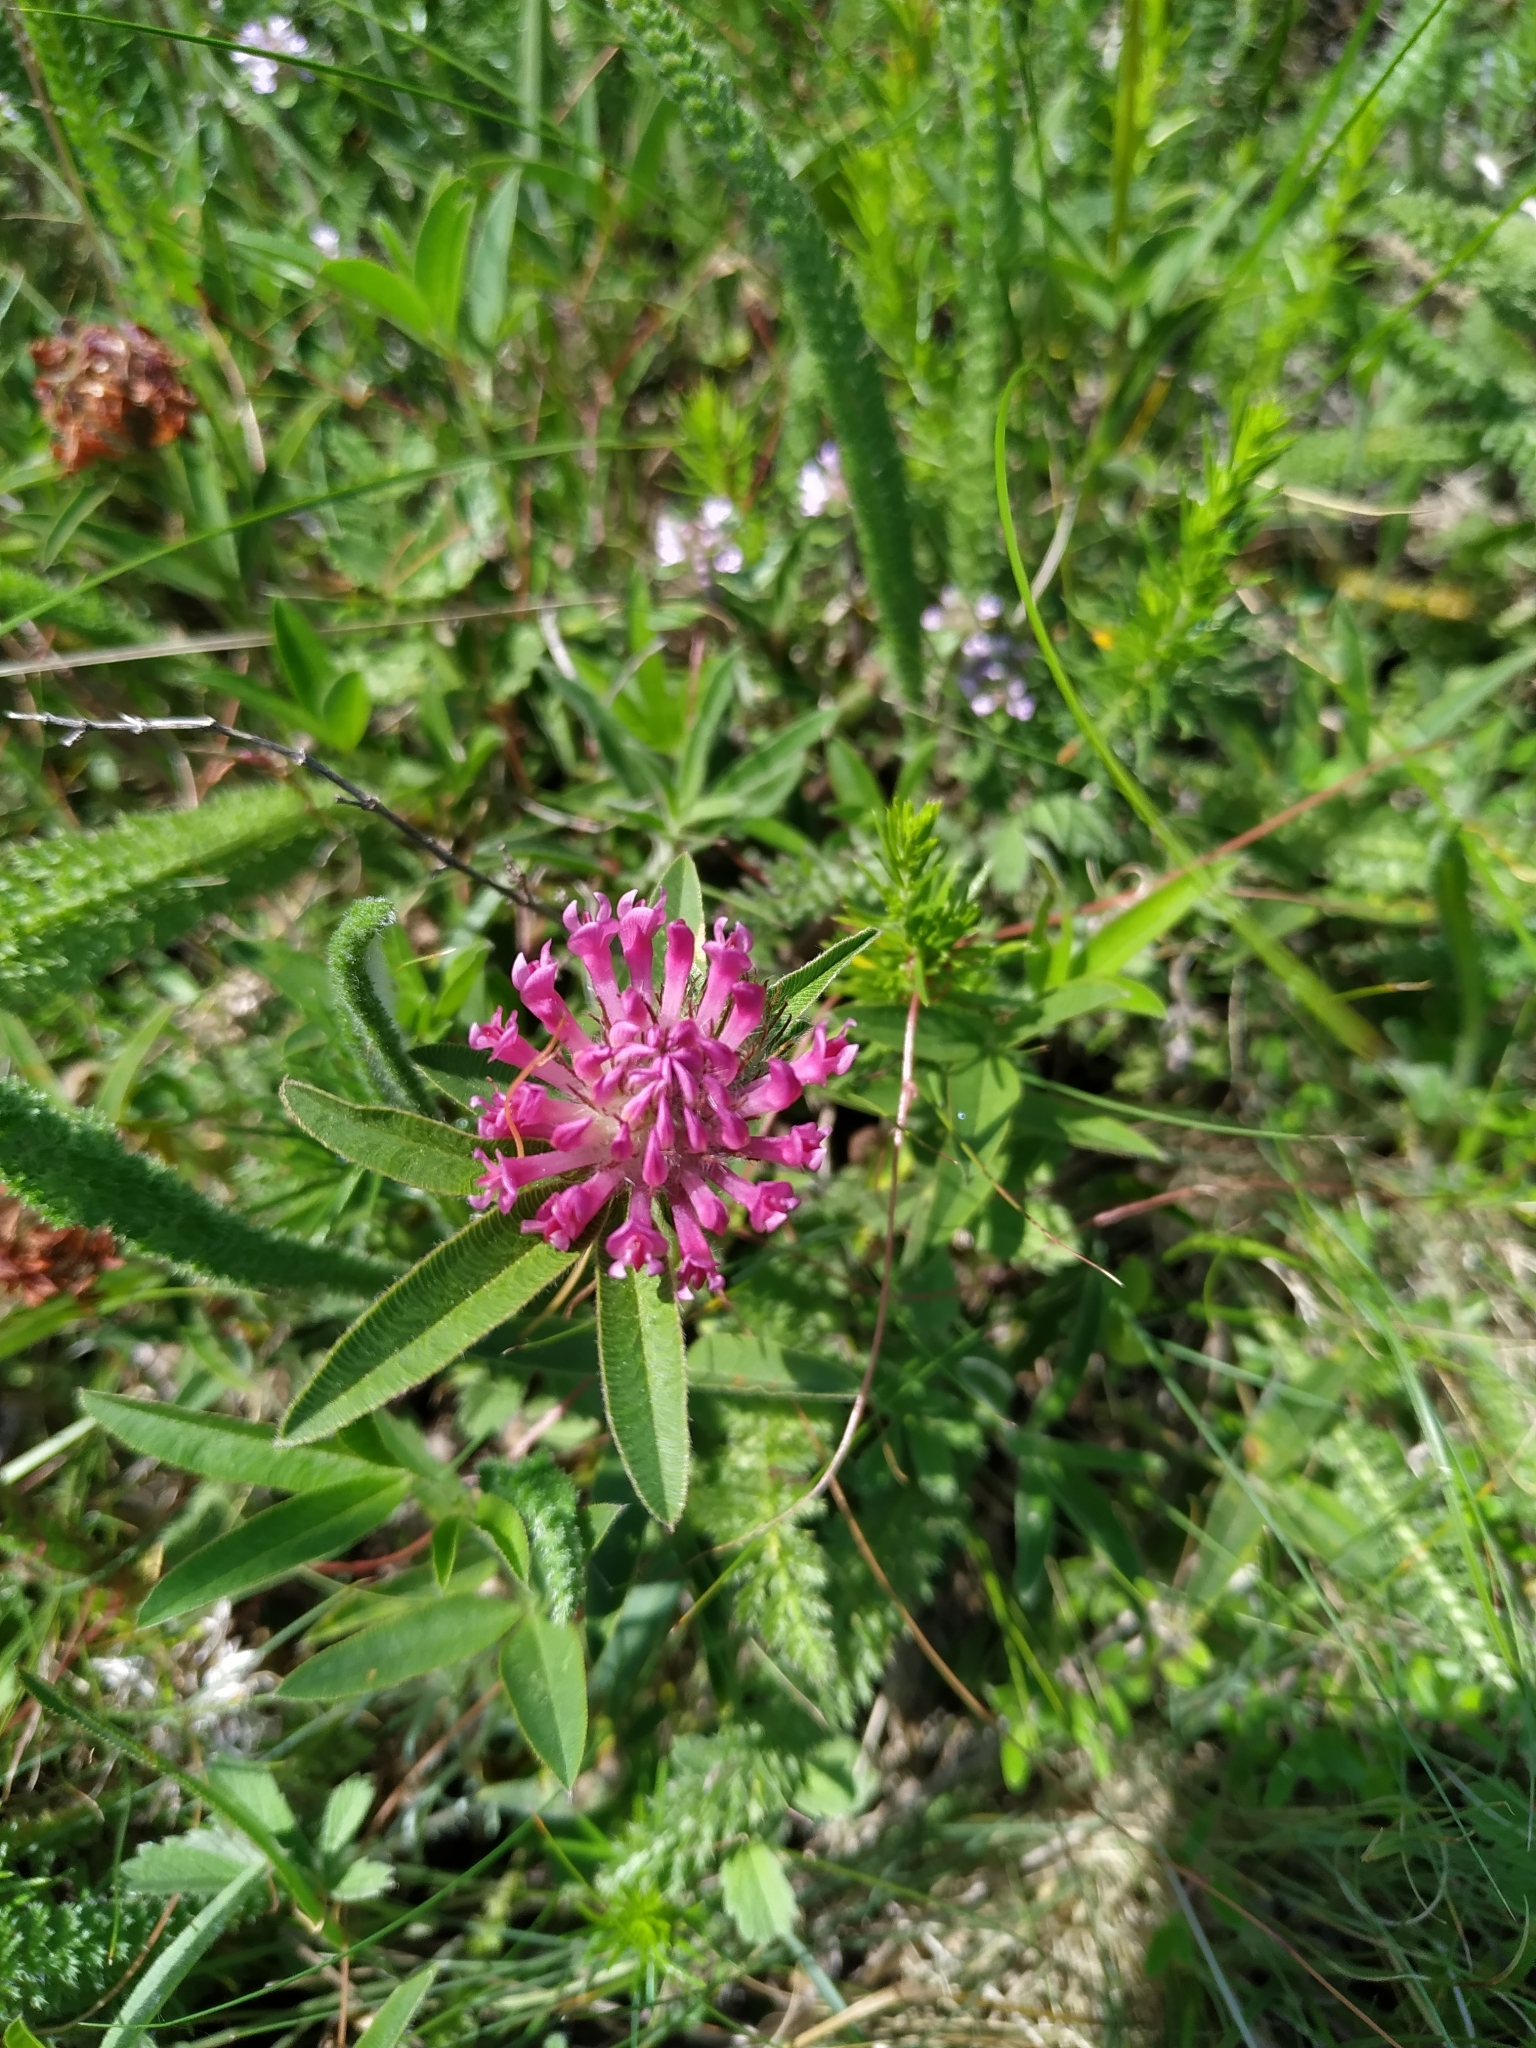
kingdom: Plantae
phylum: Tracheophyta
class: Magnoliopsida
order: Fabales
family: Fabaceae
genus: Trifolium
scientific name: Trifolium alpestre
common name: Owl-head clover
